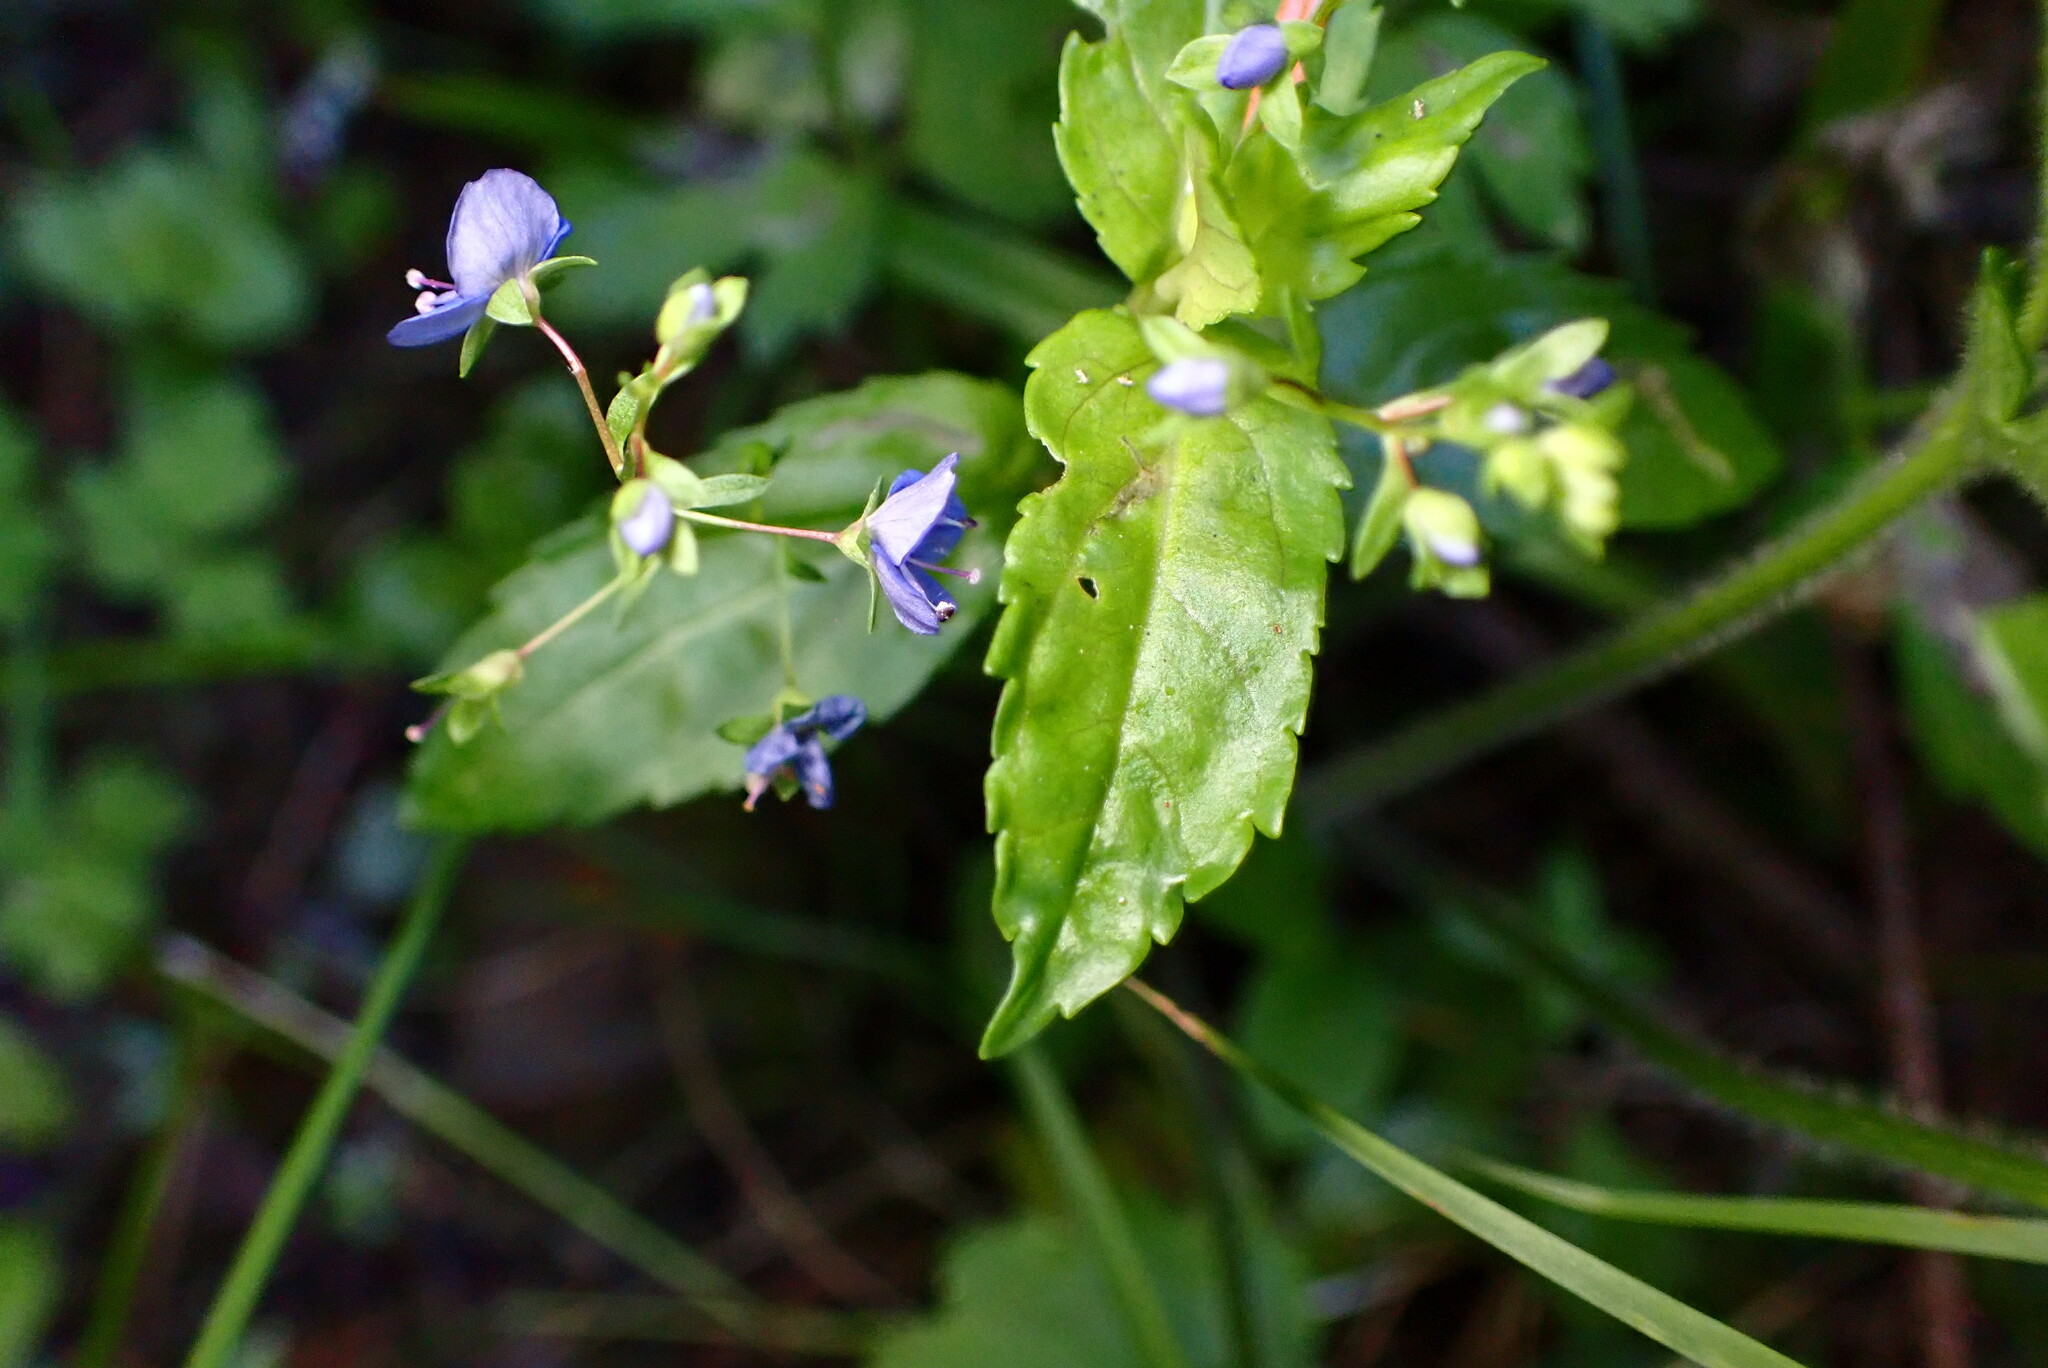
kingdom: Plantae
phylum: Tracheophyta
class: Magnoliopsida
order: Lamiales
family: Plantaginaceae
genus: Veronica
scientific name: Veronica americana
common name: American brooklime
